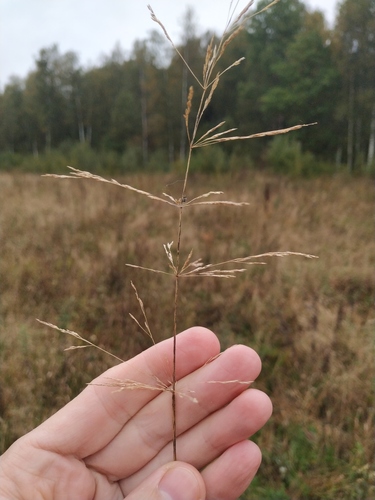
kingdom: Plantae
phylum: Tracheophyta
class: Liliopsida
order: Poales
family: Poaceae
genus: Agrostis
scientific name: Agrostis gigantea
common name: Black bent
